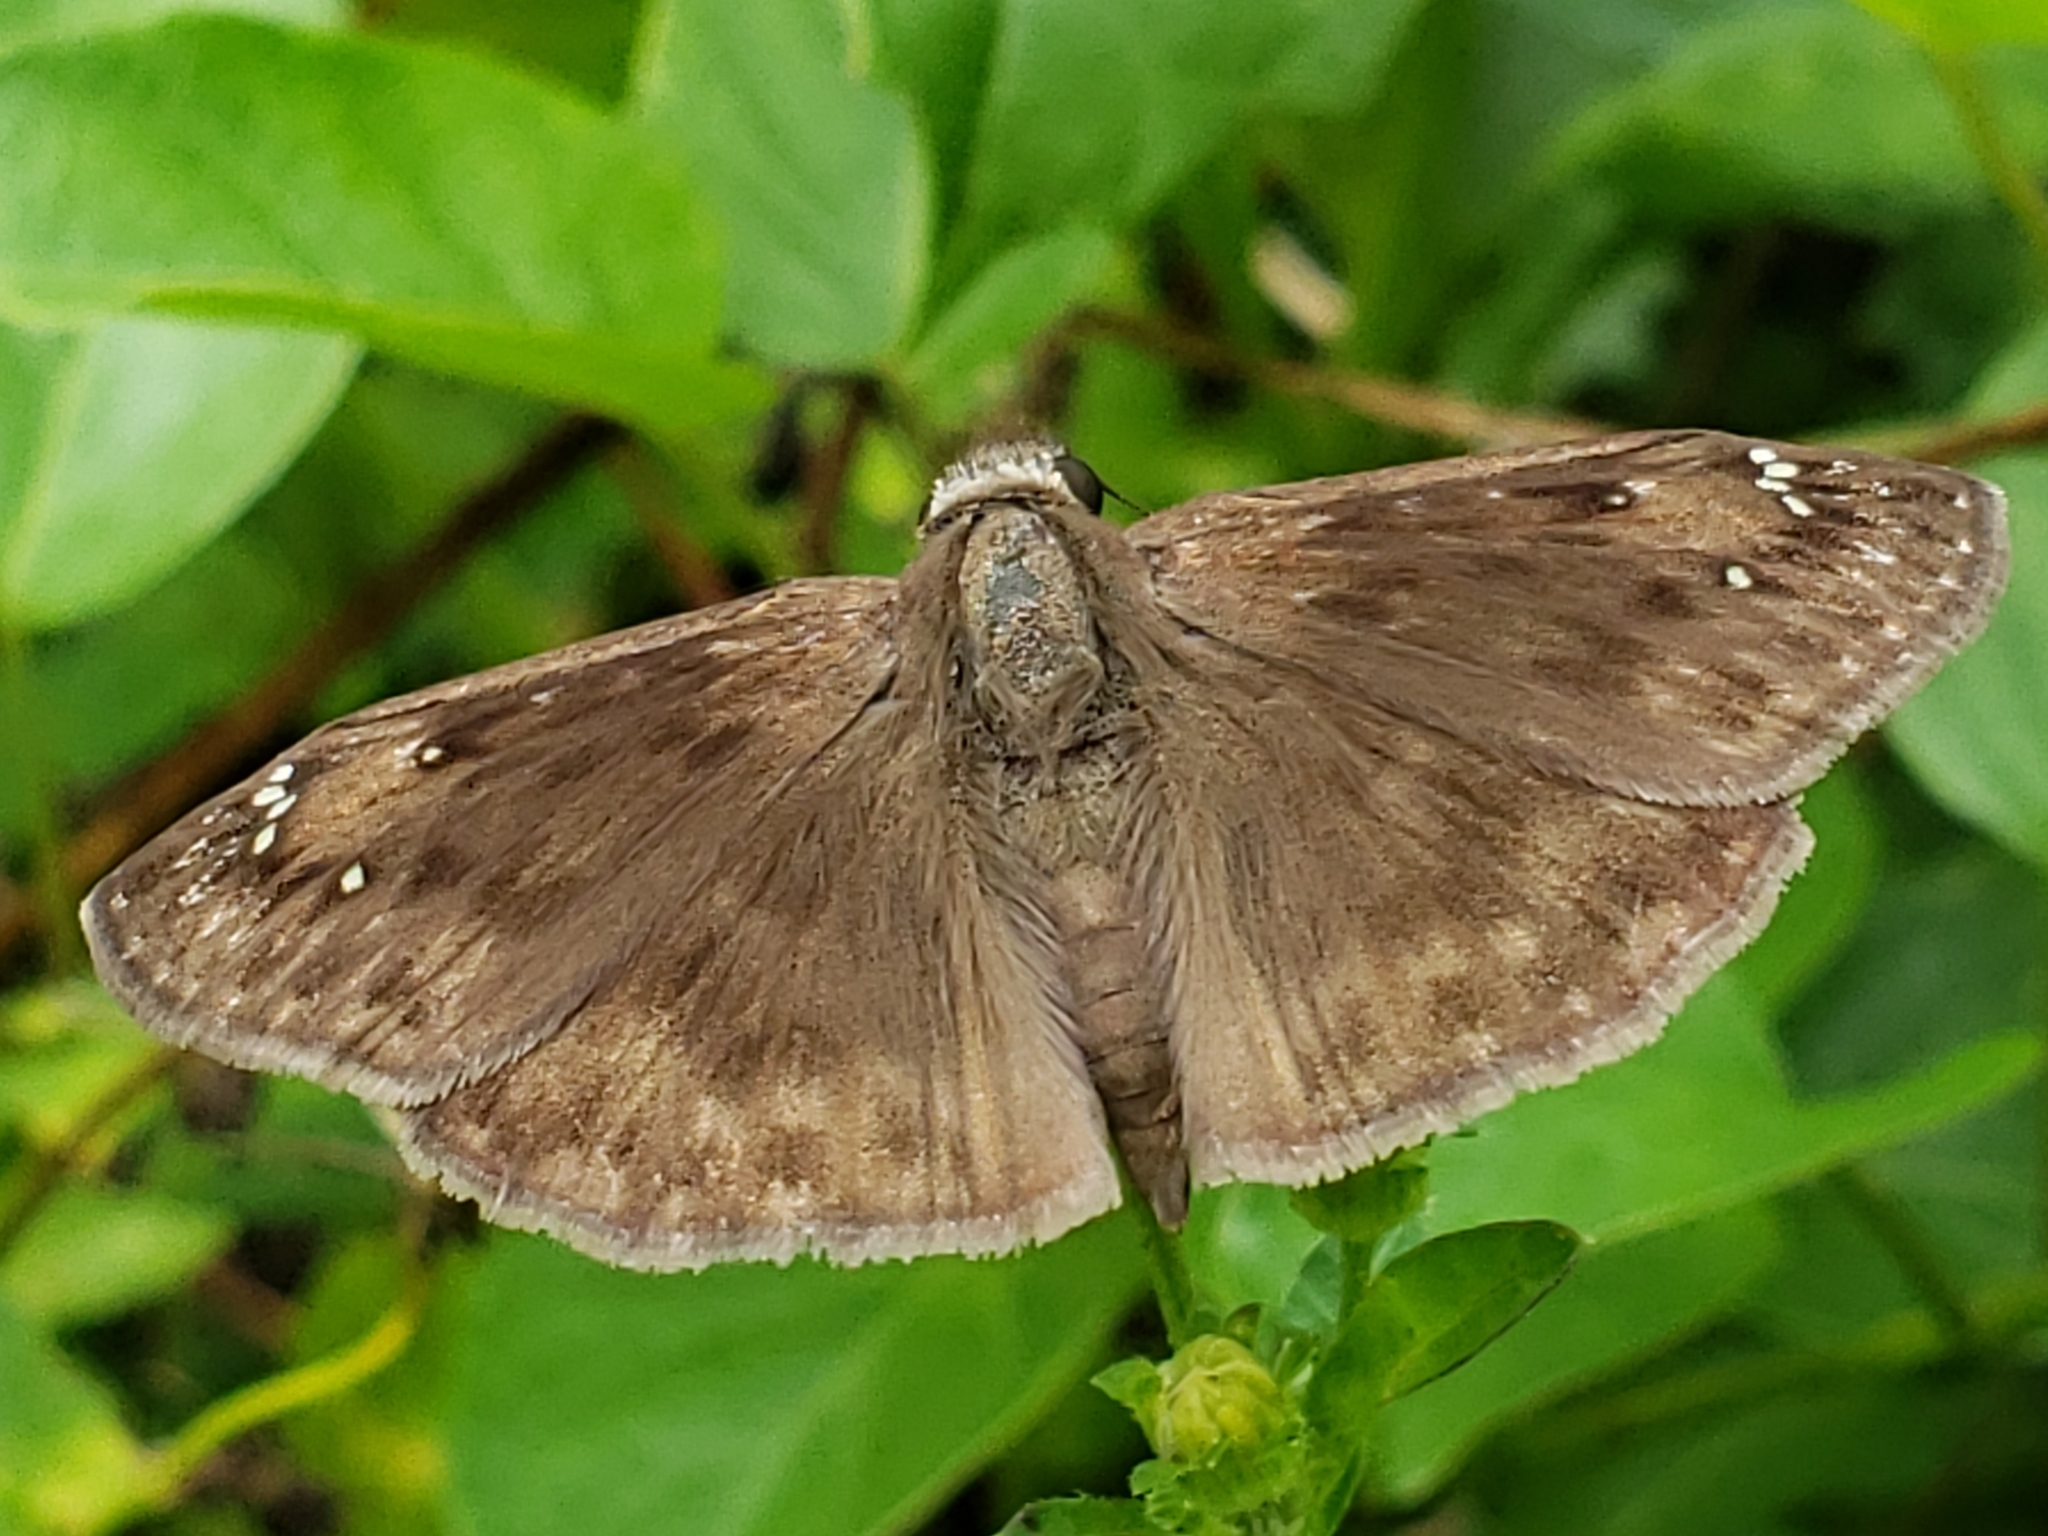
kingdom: Animalia
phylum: Arthropoda
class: Insecta
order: Lepidoptera
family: Hesperiidae
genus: Erynnis
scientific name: Erynnis horatius
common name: Horace's duskywing
